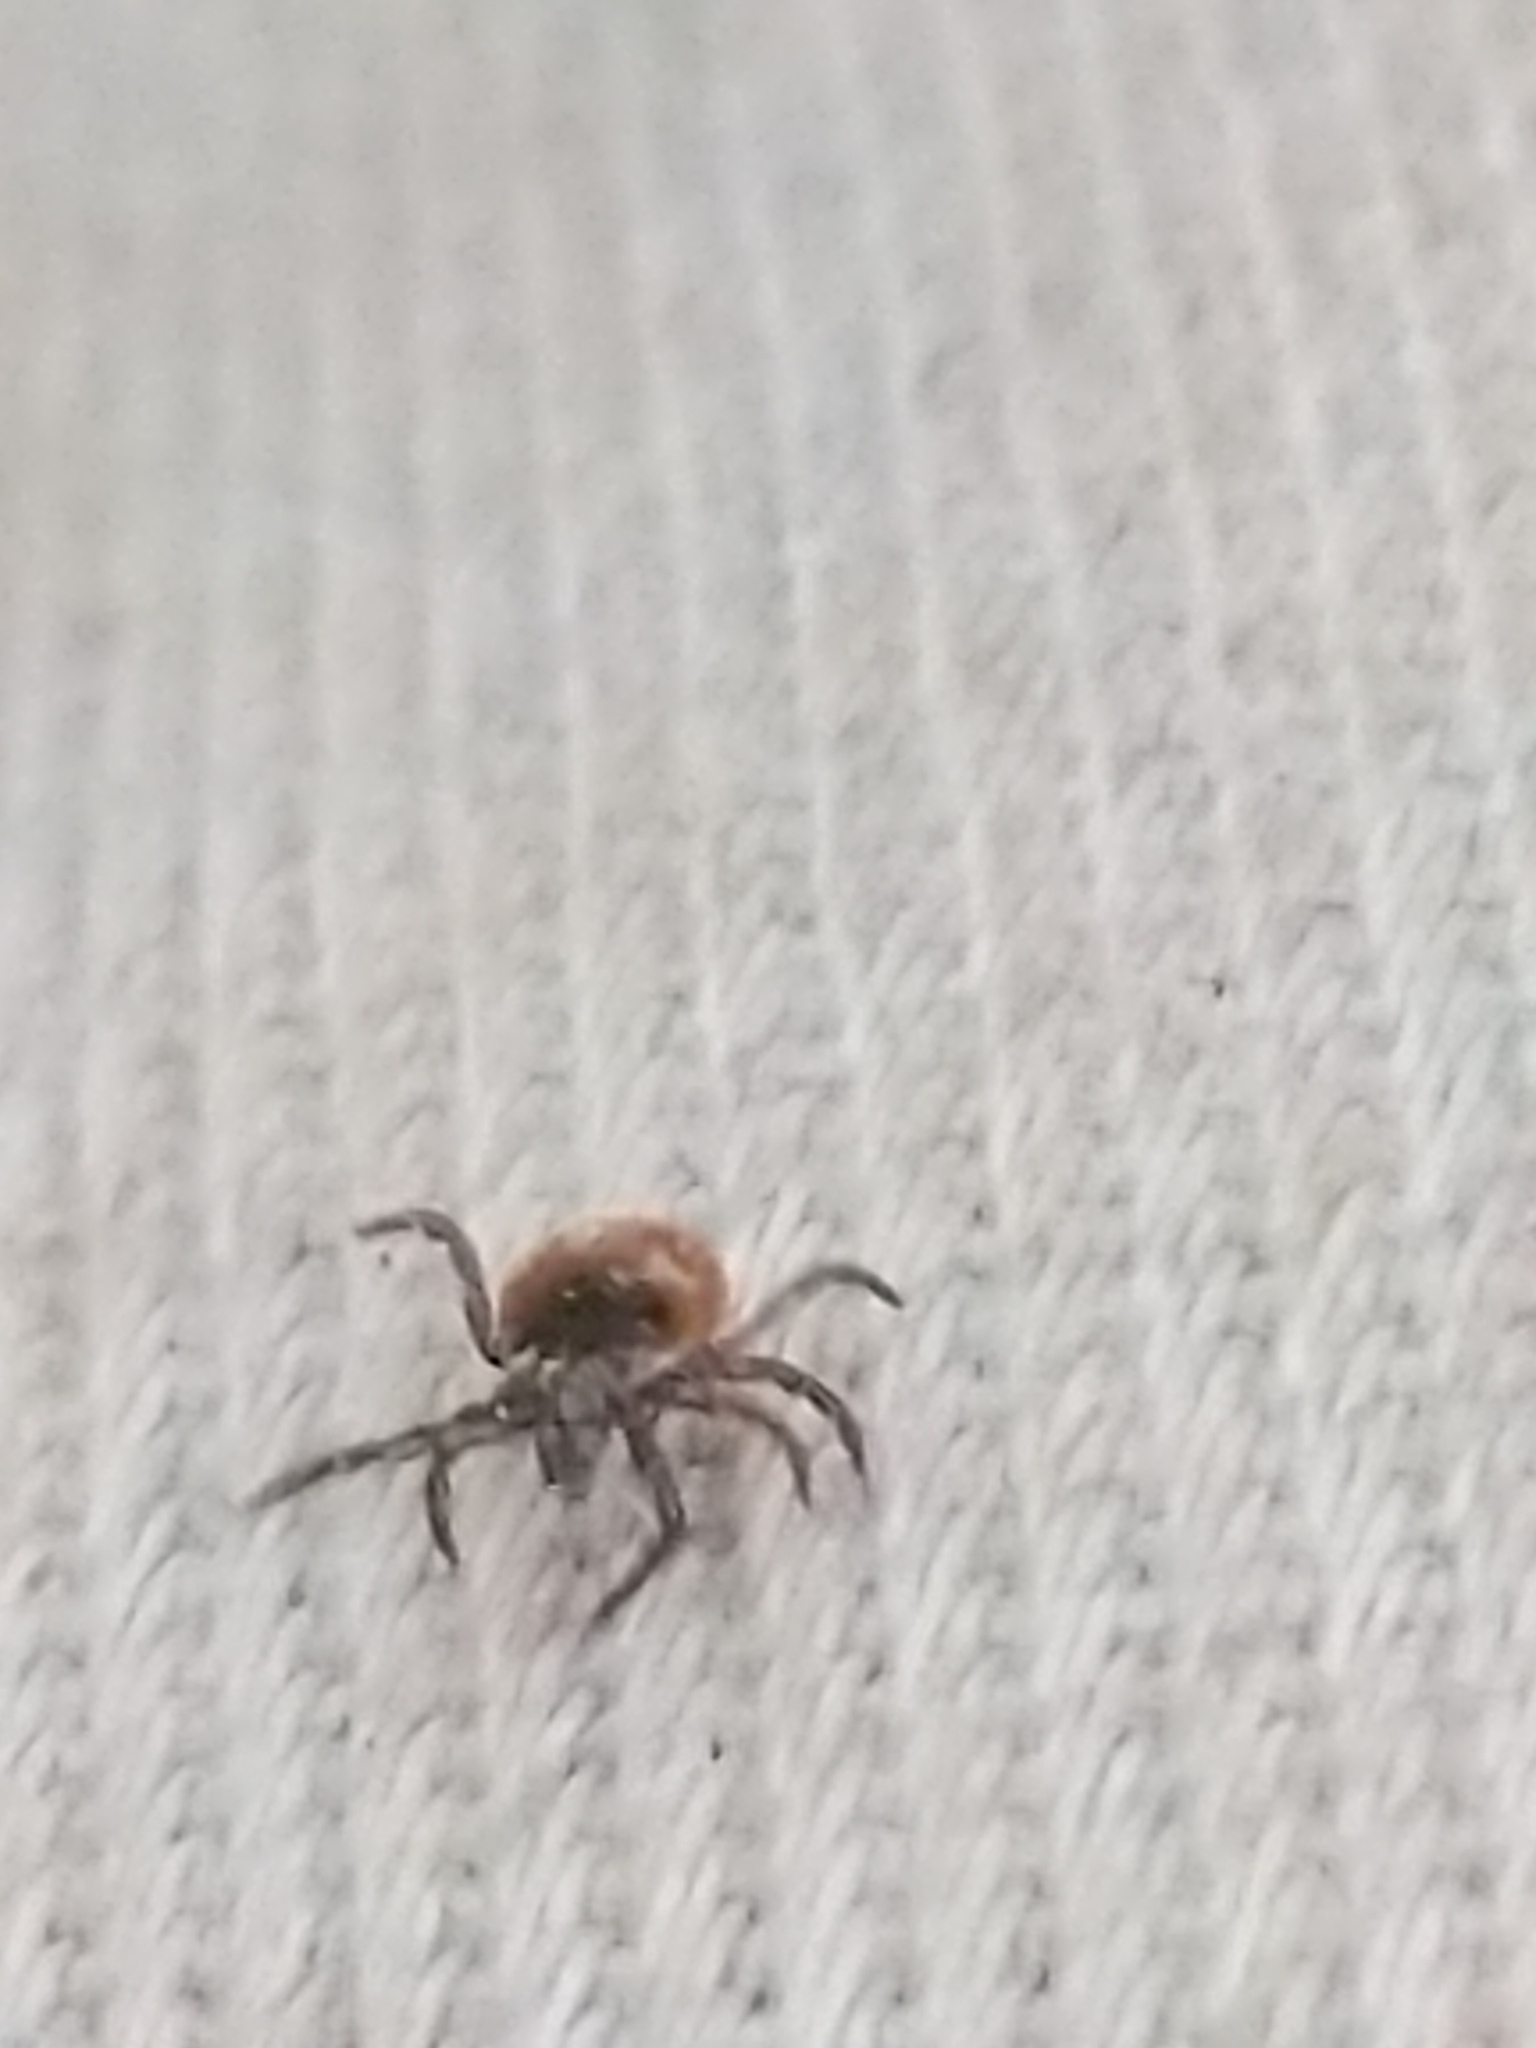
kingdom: Animalia
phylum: Arthropoda
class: Arachnida
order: Ixodida
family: Ixodidae
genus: Ixodes
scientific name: Ixodes scapularis
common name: Black legged tick
